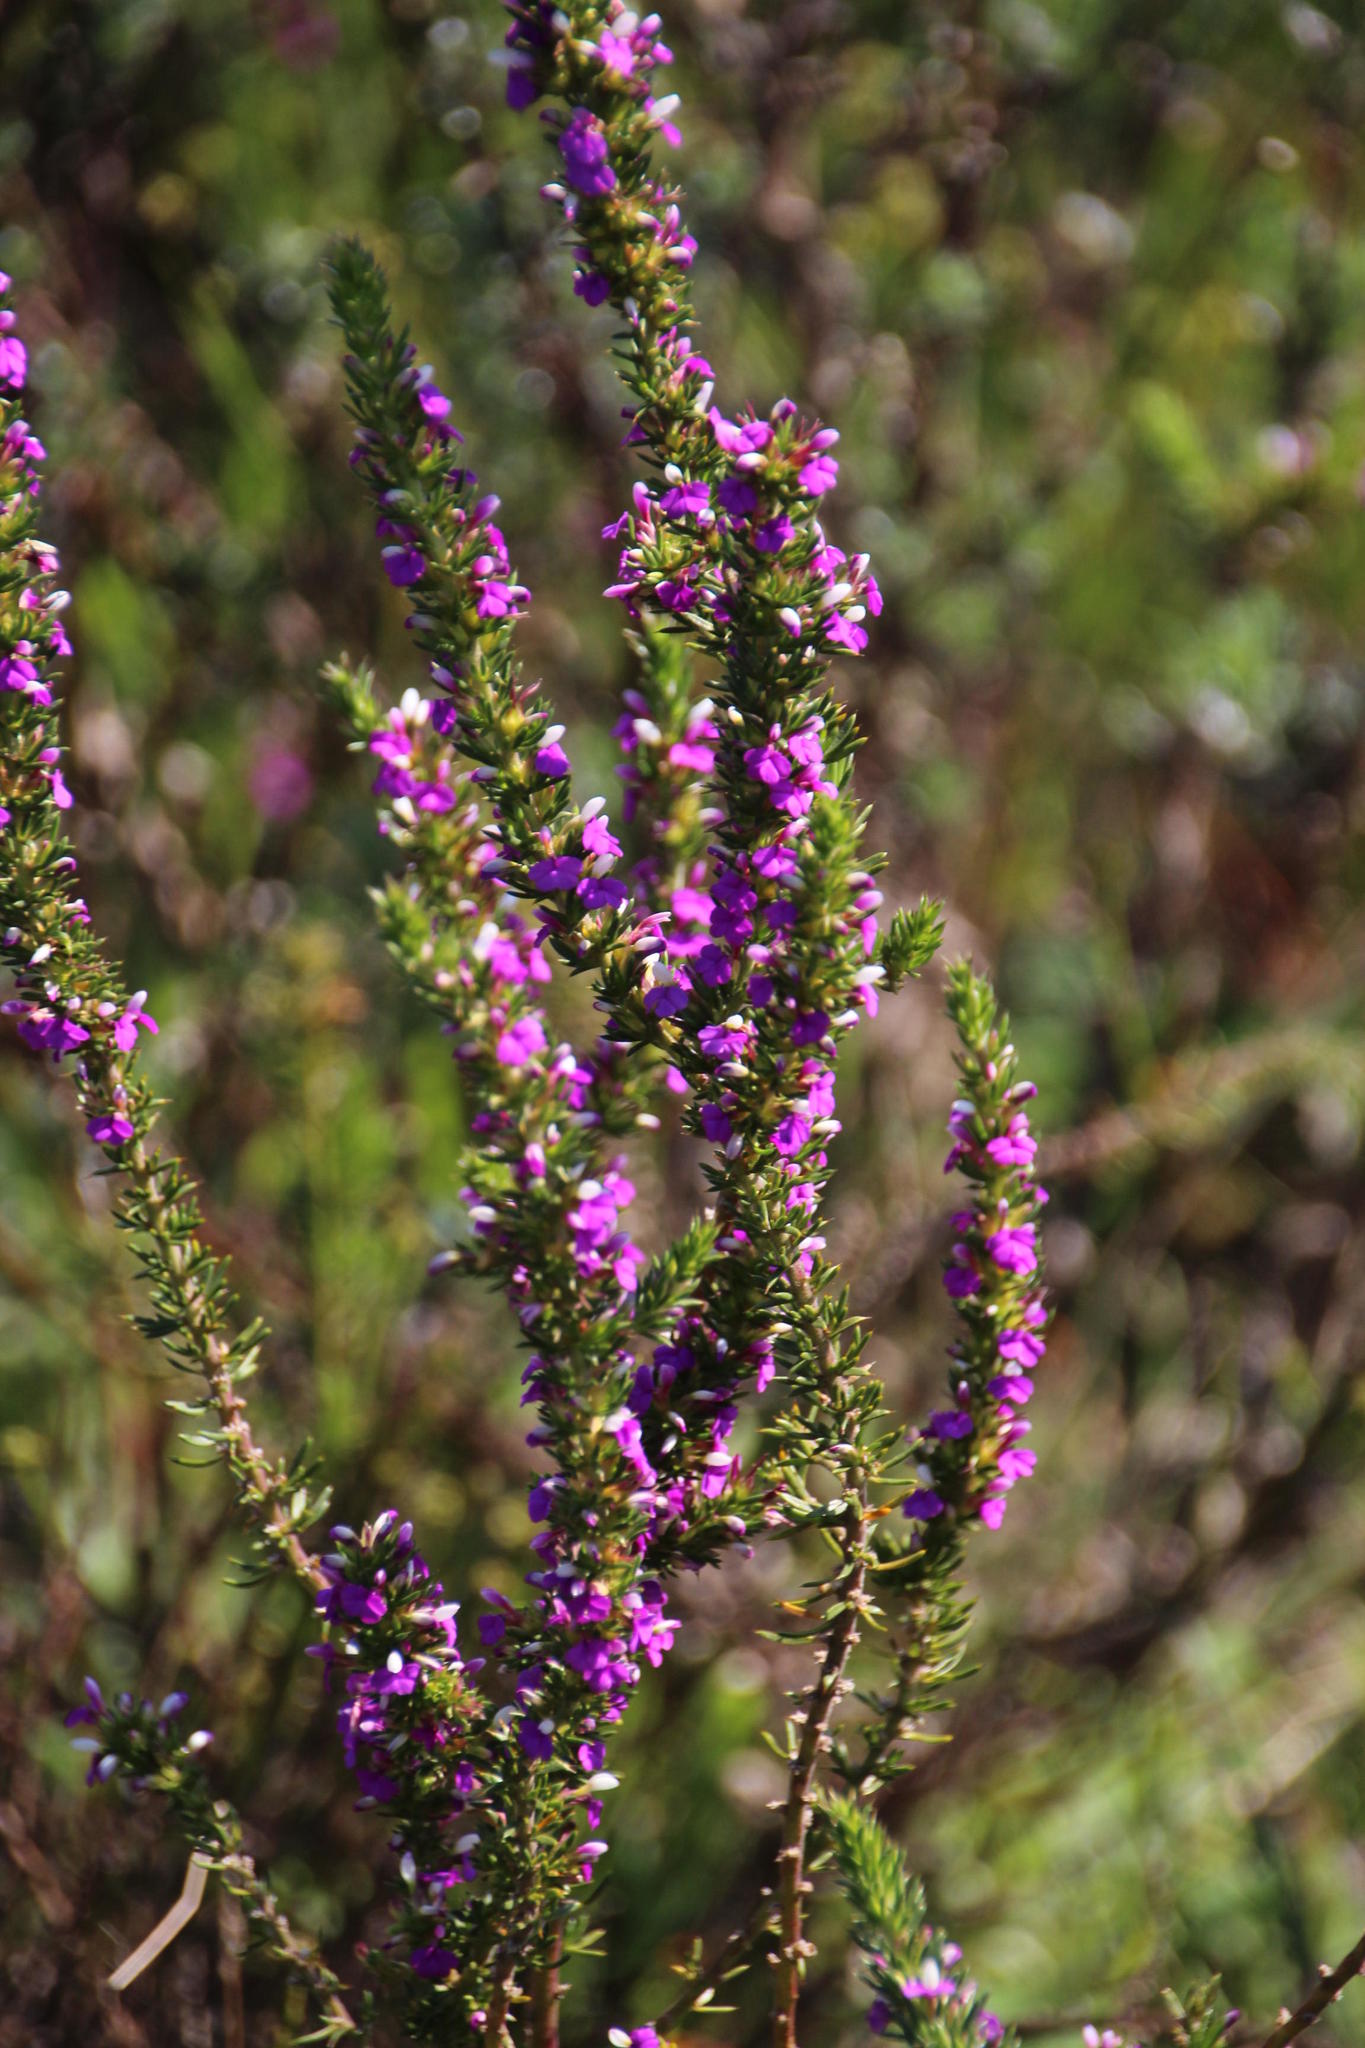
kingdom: Plantae
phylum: Tracheophyta
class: Magnoliopsida
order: Fabales
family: Polygalaceae
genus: Muraltia
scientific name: Muraltia heisteria
